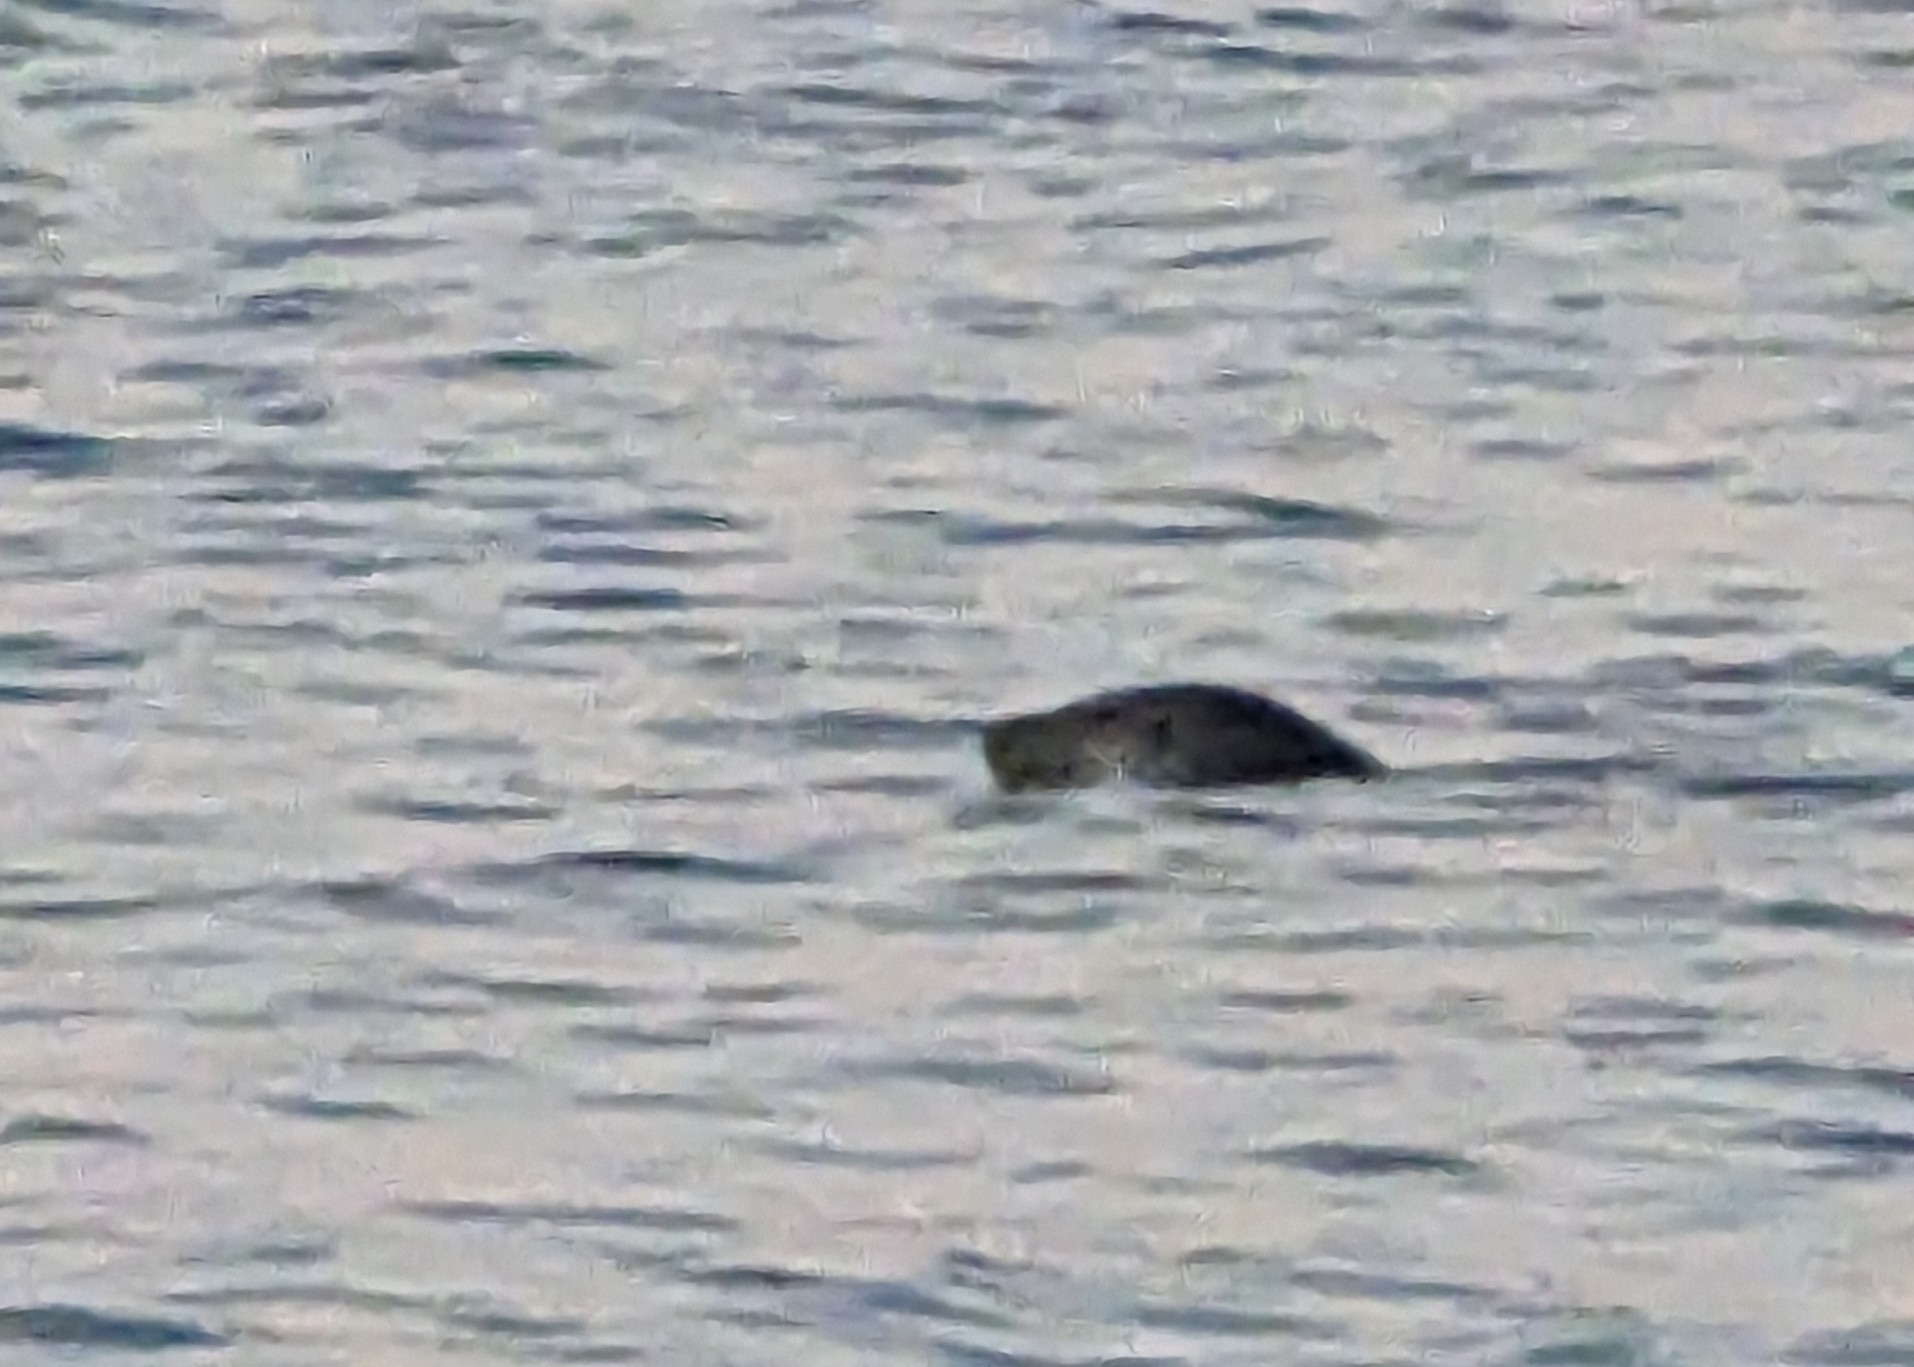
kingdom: Animalia
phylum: Chordata
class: Mammalia
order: Carnivora
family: Phocidae
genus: Phoca
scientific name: Phoca vitulina
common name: Harbor seal
